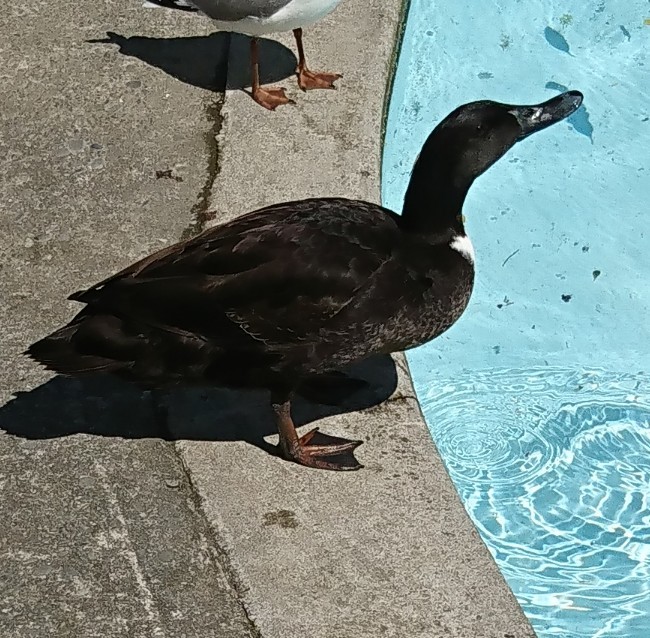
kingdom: Animalia
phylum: Chordata
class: Aves
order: Anseriformes
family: Anatidae
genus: Anas
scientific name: Anas platyrhynchos
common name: Mallard
